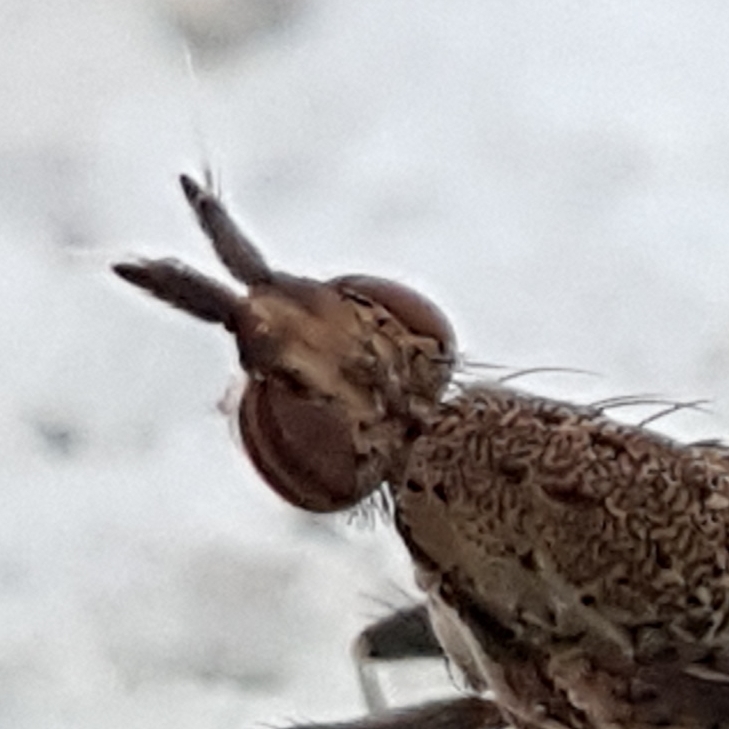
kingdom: Animalia
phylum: Arthropoda
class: Insecta
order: Diptera
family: Sciomyzidae
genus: Euthycera
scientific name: Euthycera cribrata
